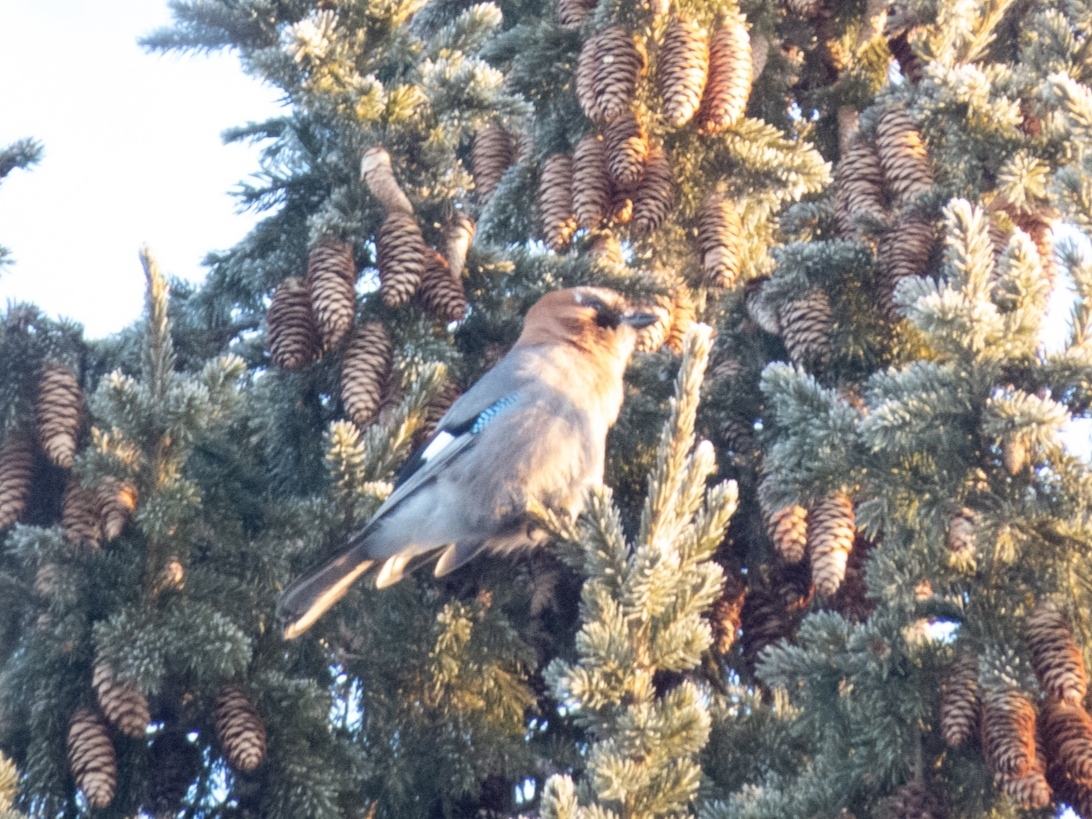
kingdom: Animalia
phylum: Chordata
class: Aves
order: Passeriformes
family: Corvidae
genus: Garrulus
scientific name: Garrulus glandarius
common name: Eurasian jay
